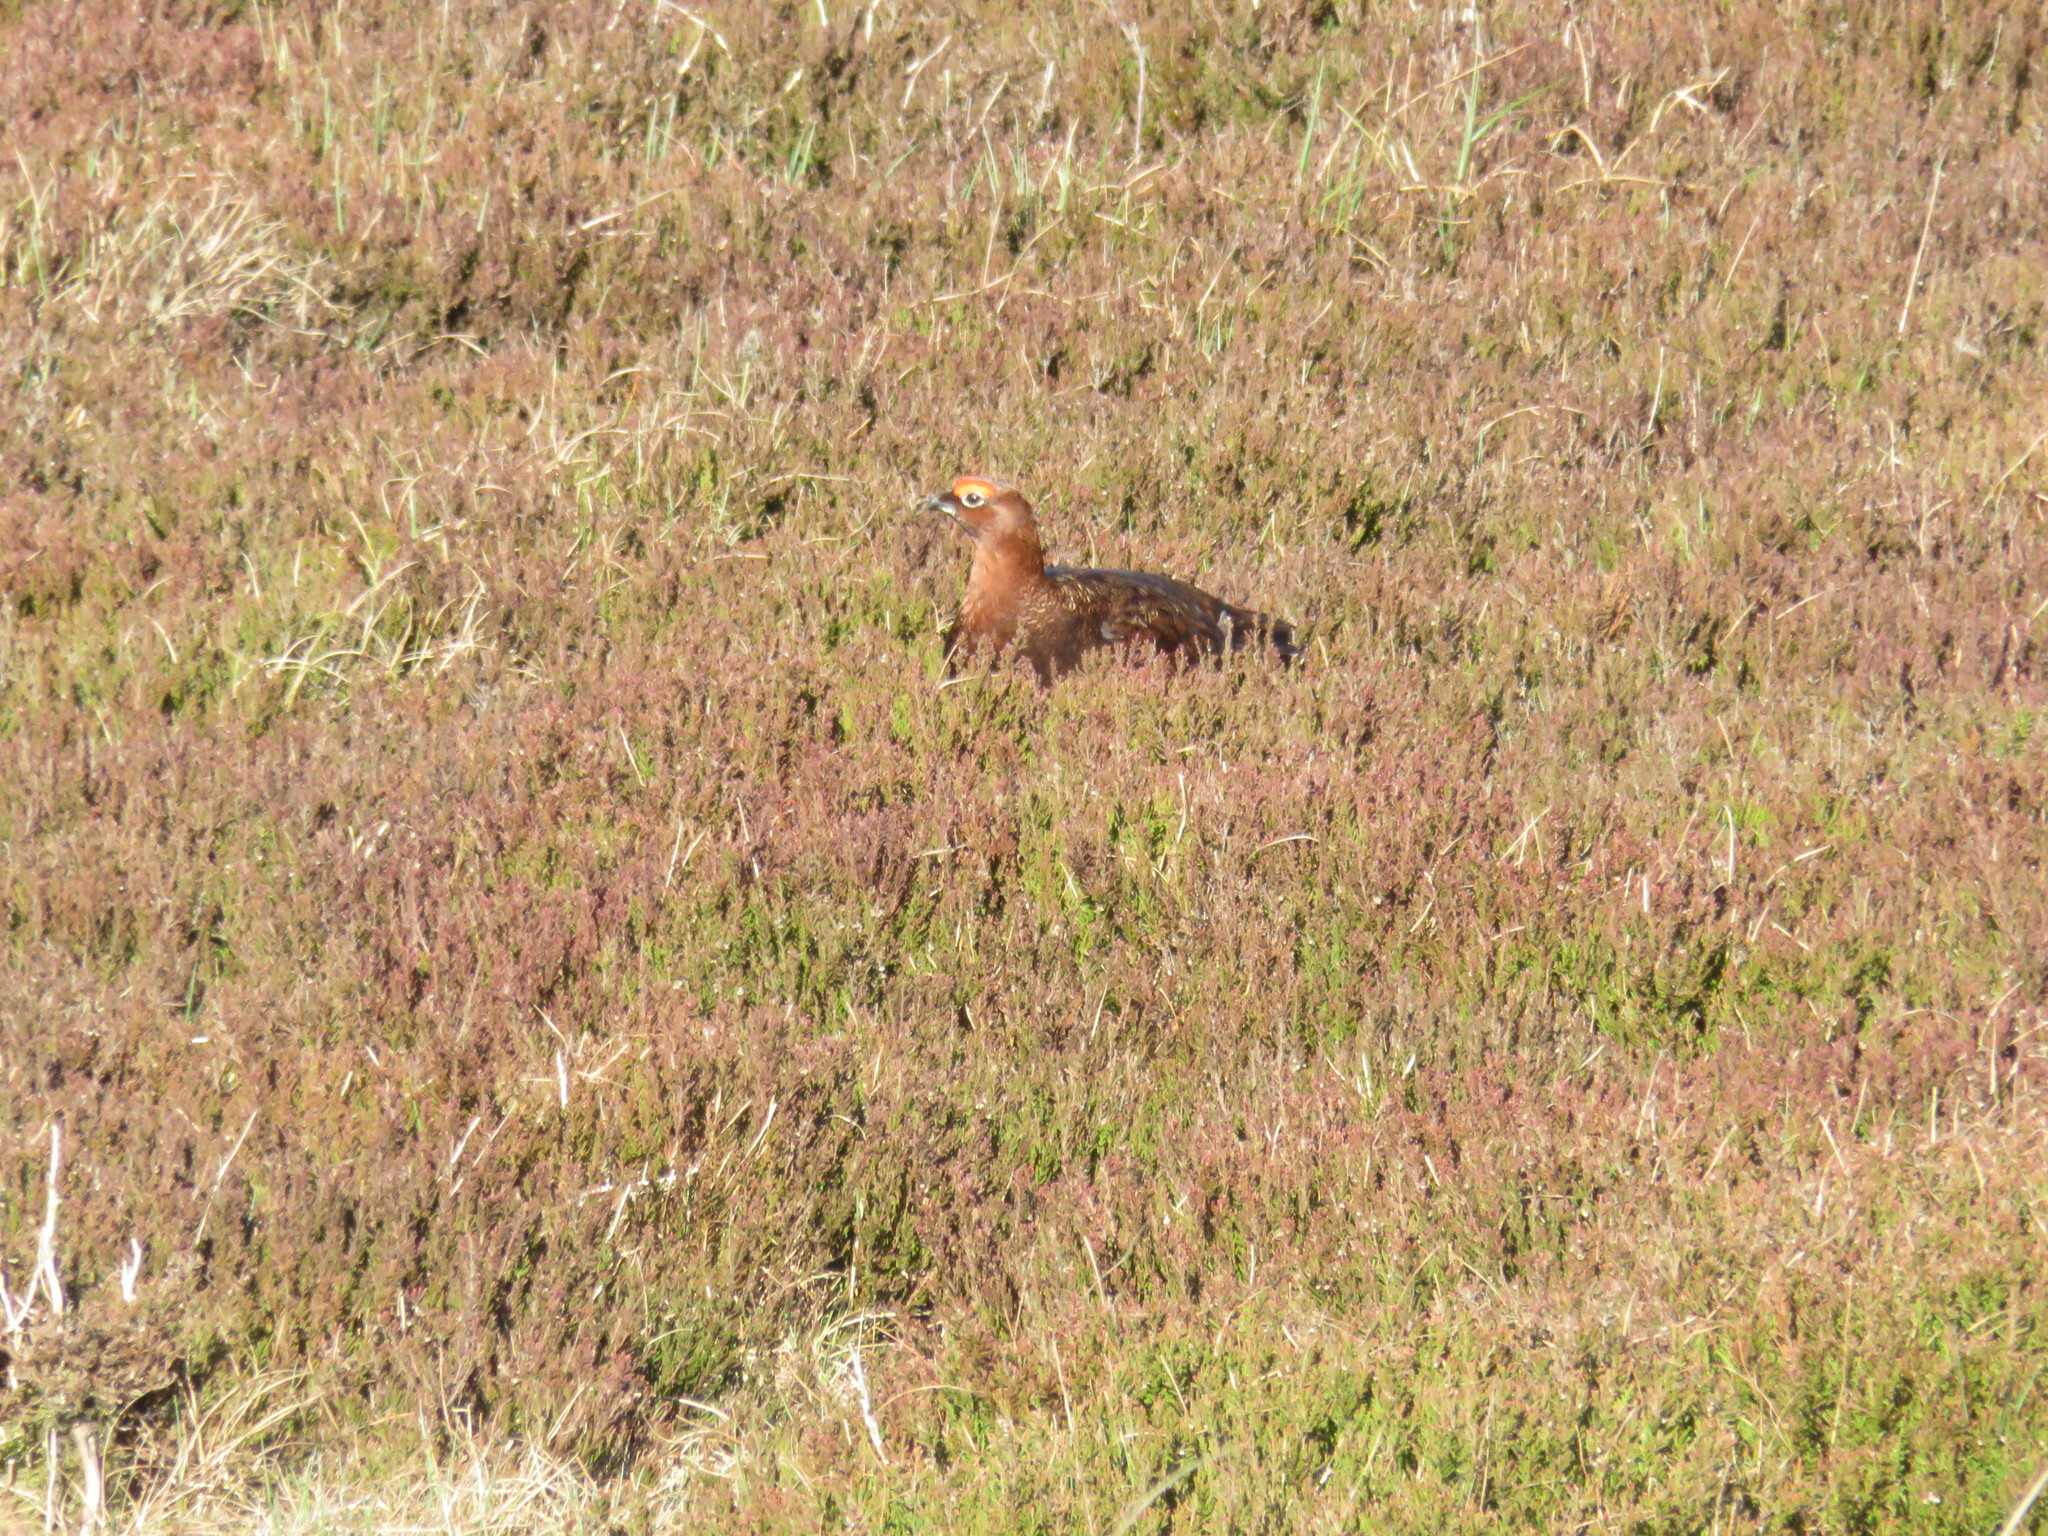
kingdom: Animalia
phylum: Chordata
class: Aves
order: Galliformes
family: Phasianidae
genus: Lagopus
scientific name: Lagopus lagopus
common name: Willow ptarmigan
